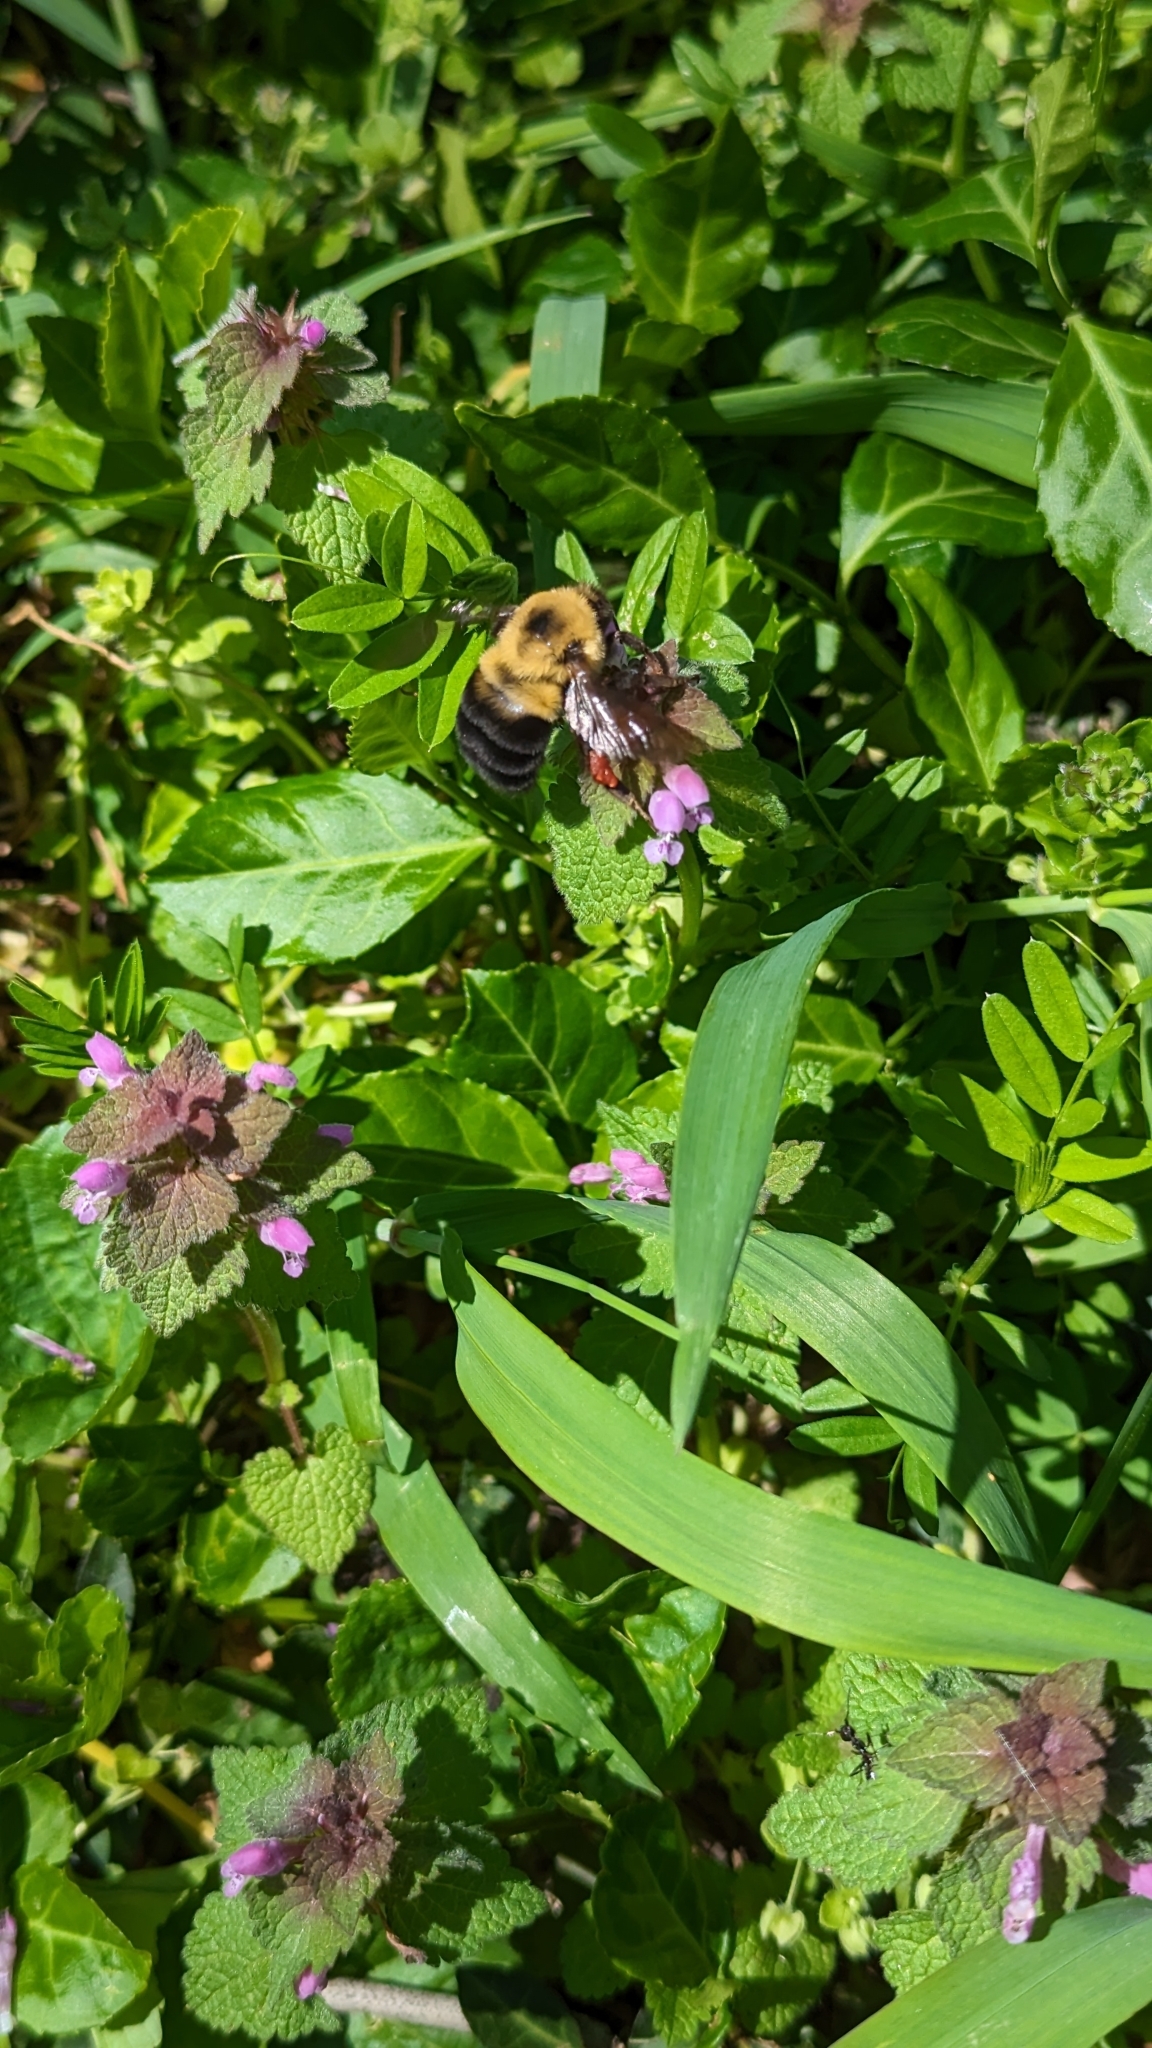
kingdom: Animalia
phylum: Arthropoda
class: Insecta
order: Hymenoptera
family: Apidae
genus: Bombus
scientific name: Bombus griseocollis
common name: Brown-belted bumble bee
